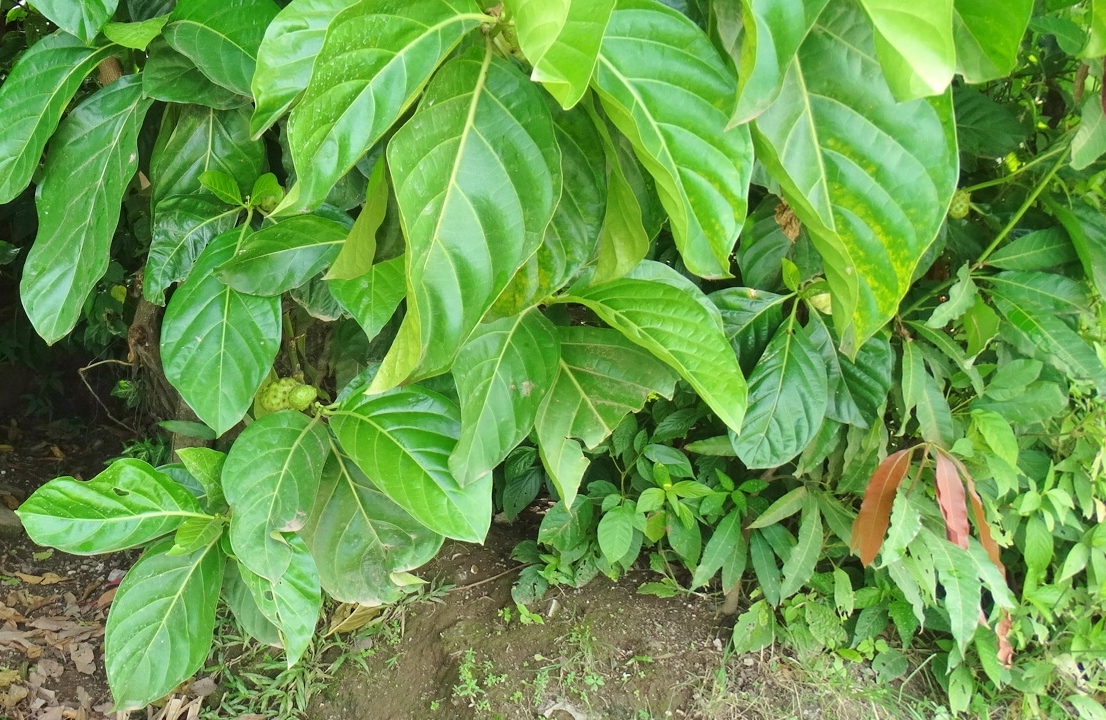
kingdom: Plantae
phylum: Tracheophyta
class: Magnoliopsida
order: Gentianales
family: Rubiaceae
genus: Morinda
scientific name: Morinda citrifolia
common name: Indian-mulberry
